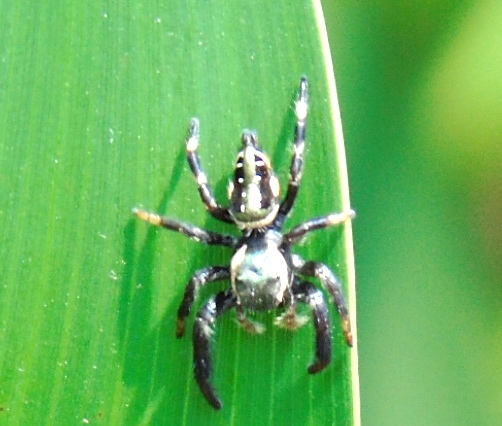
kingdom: Animalia
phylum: Arthropoda
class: Arachnida
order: Araneae
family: Salticidae
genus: Paraphidippus
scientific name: Paraphidippus aurantius
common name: Jumping spiders
